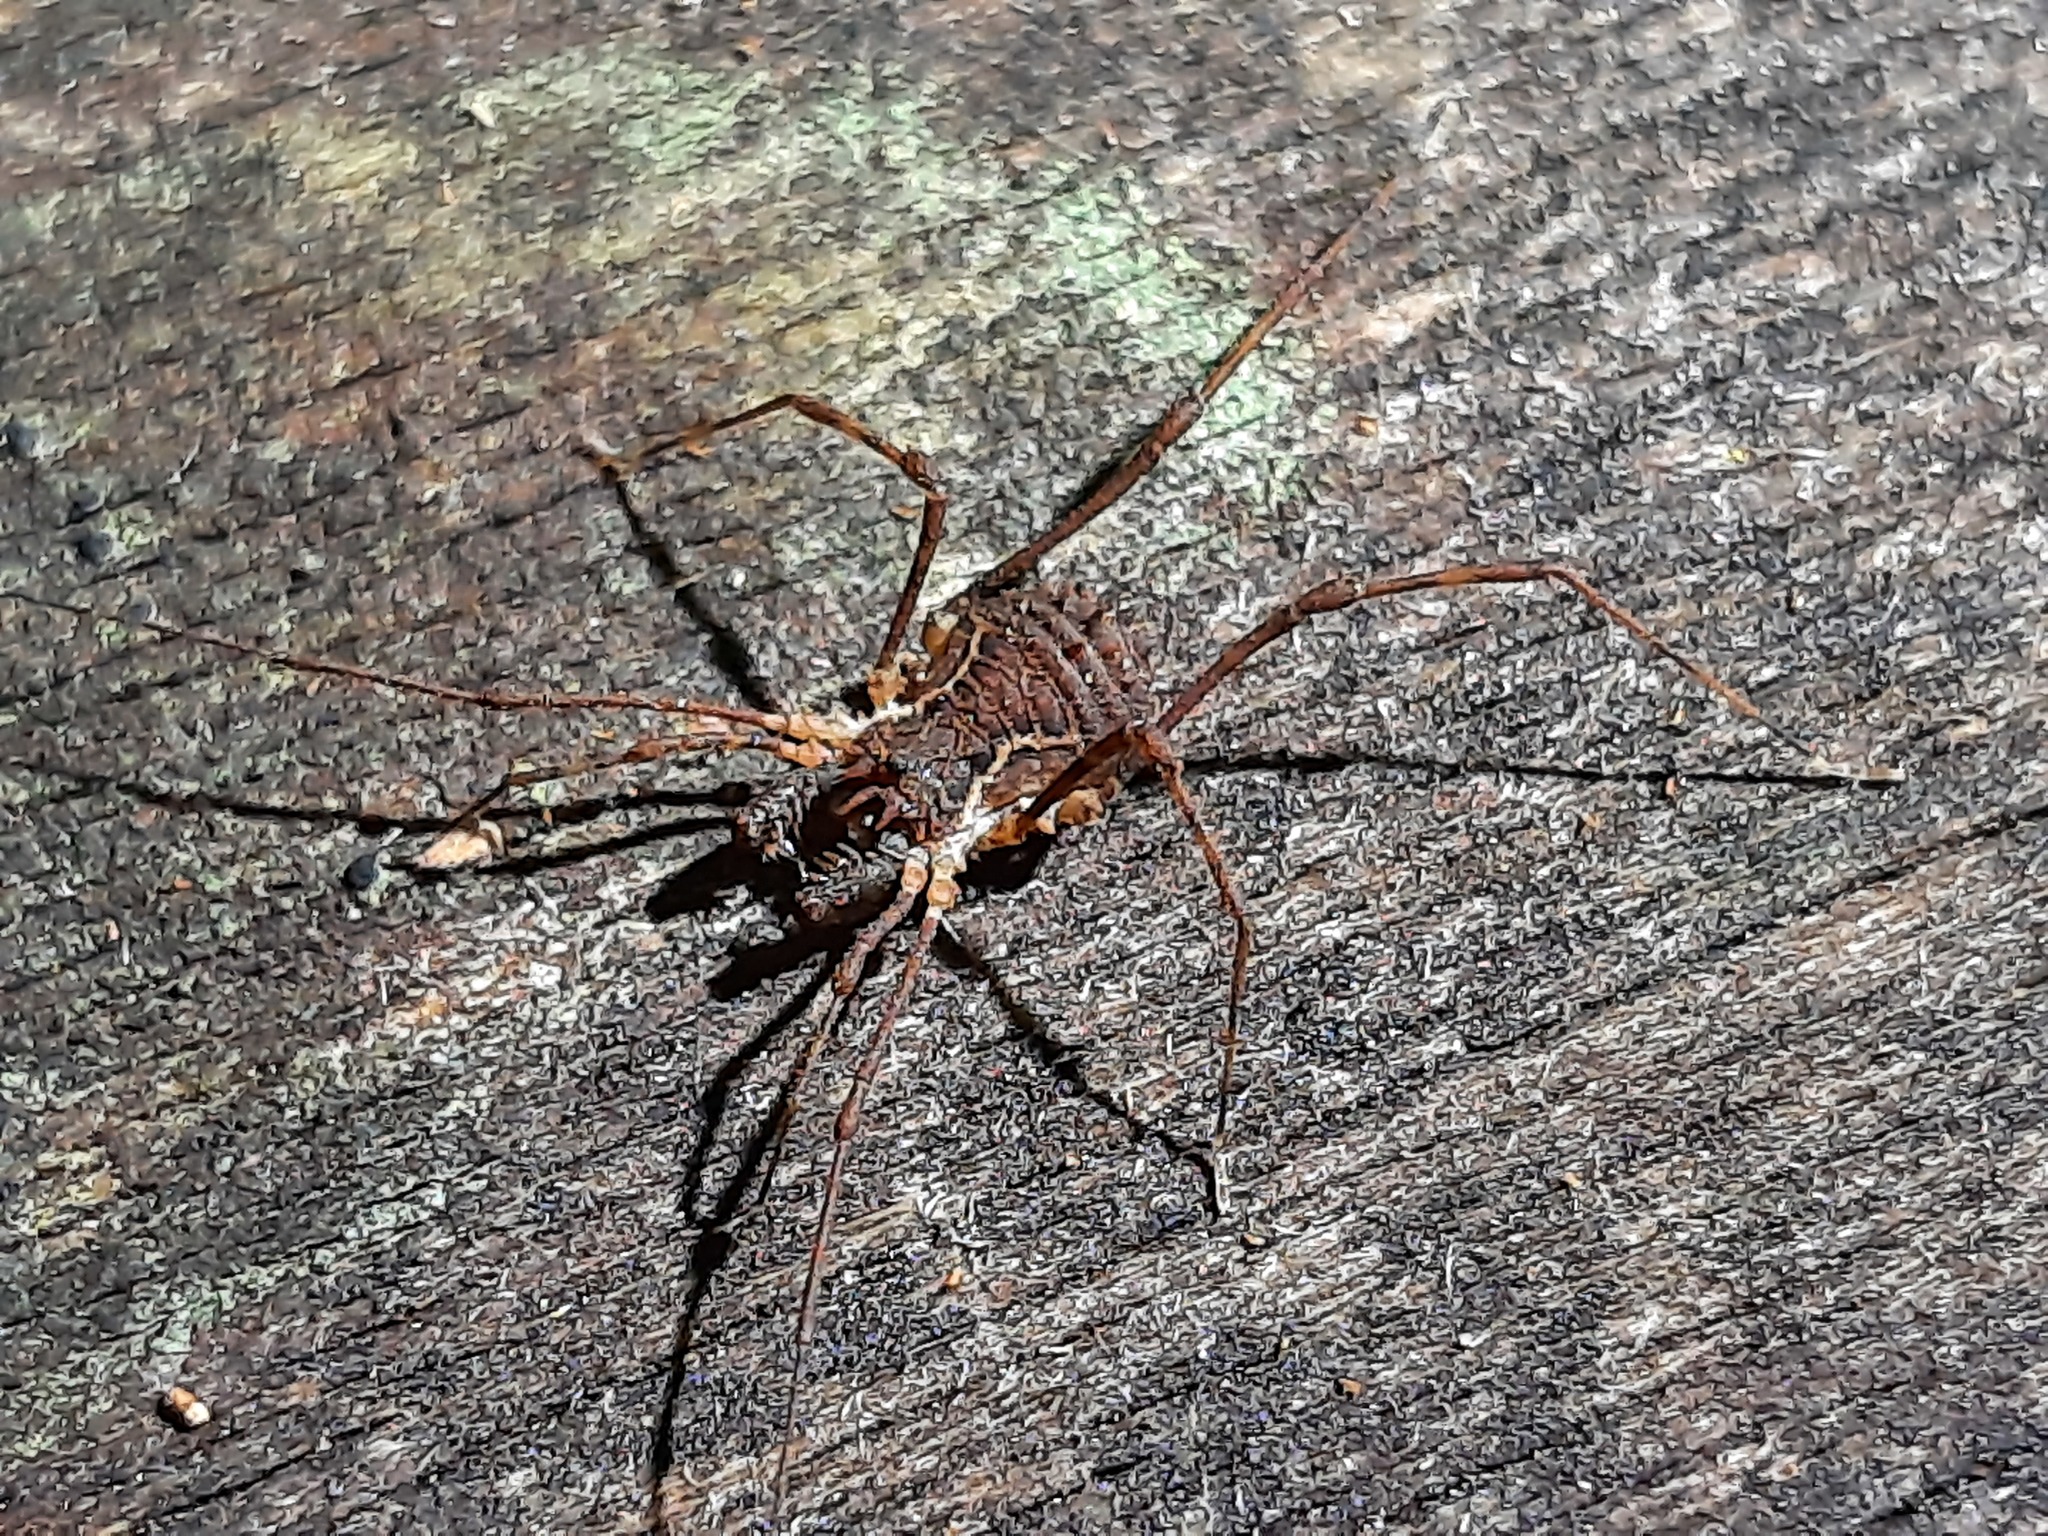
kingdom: Animalia
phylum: Arthropoda
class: Arachnida
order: Opiliones
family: Triaenonychidae
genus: Algidia
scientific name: Algidia chiltoni
